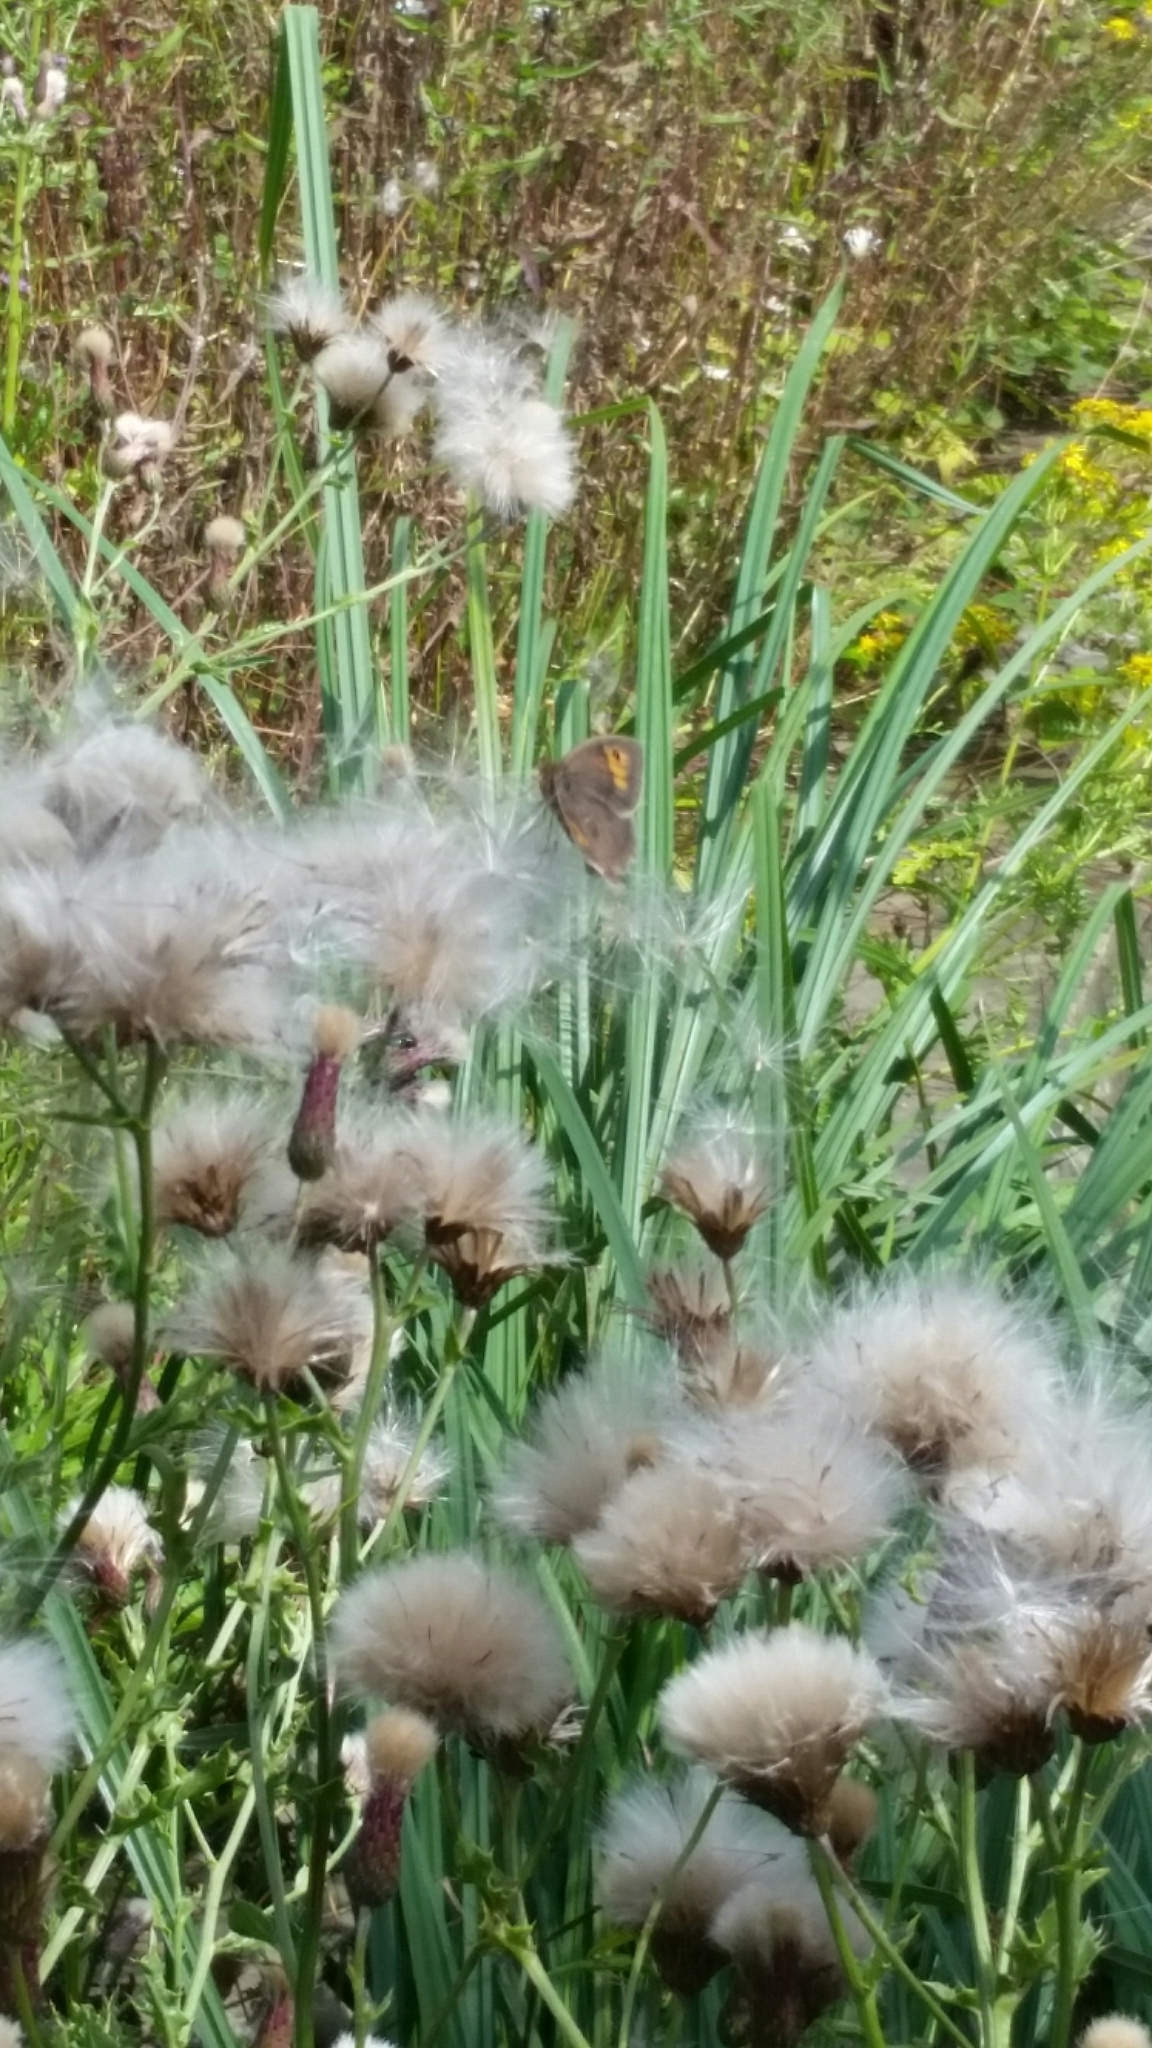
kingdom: Animalia
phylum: Arthropoda
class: Insecta
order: Lepidoptera
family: Nymphalidae
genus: Maniola
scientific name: Maniola jurtina
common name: Meadow brown
